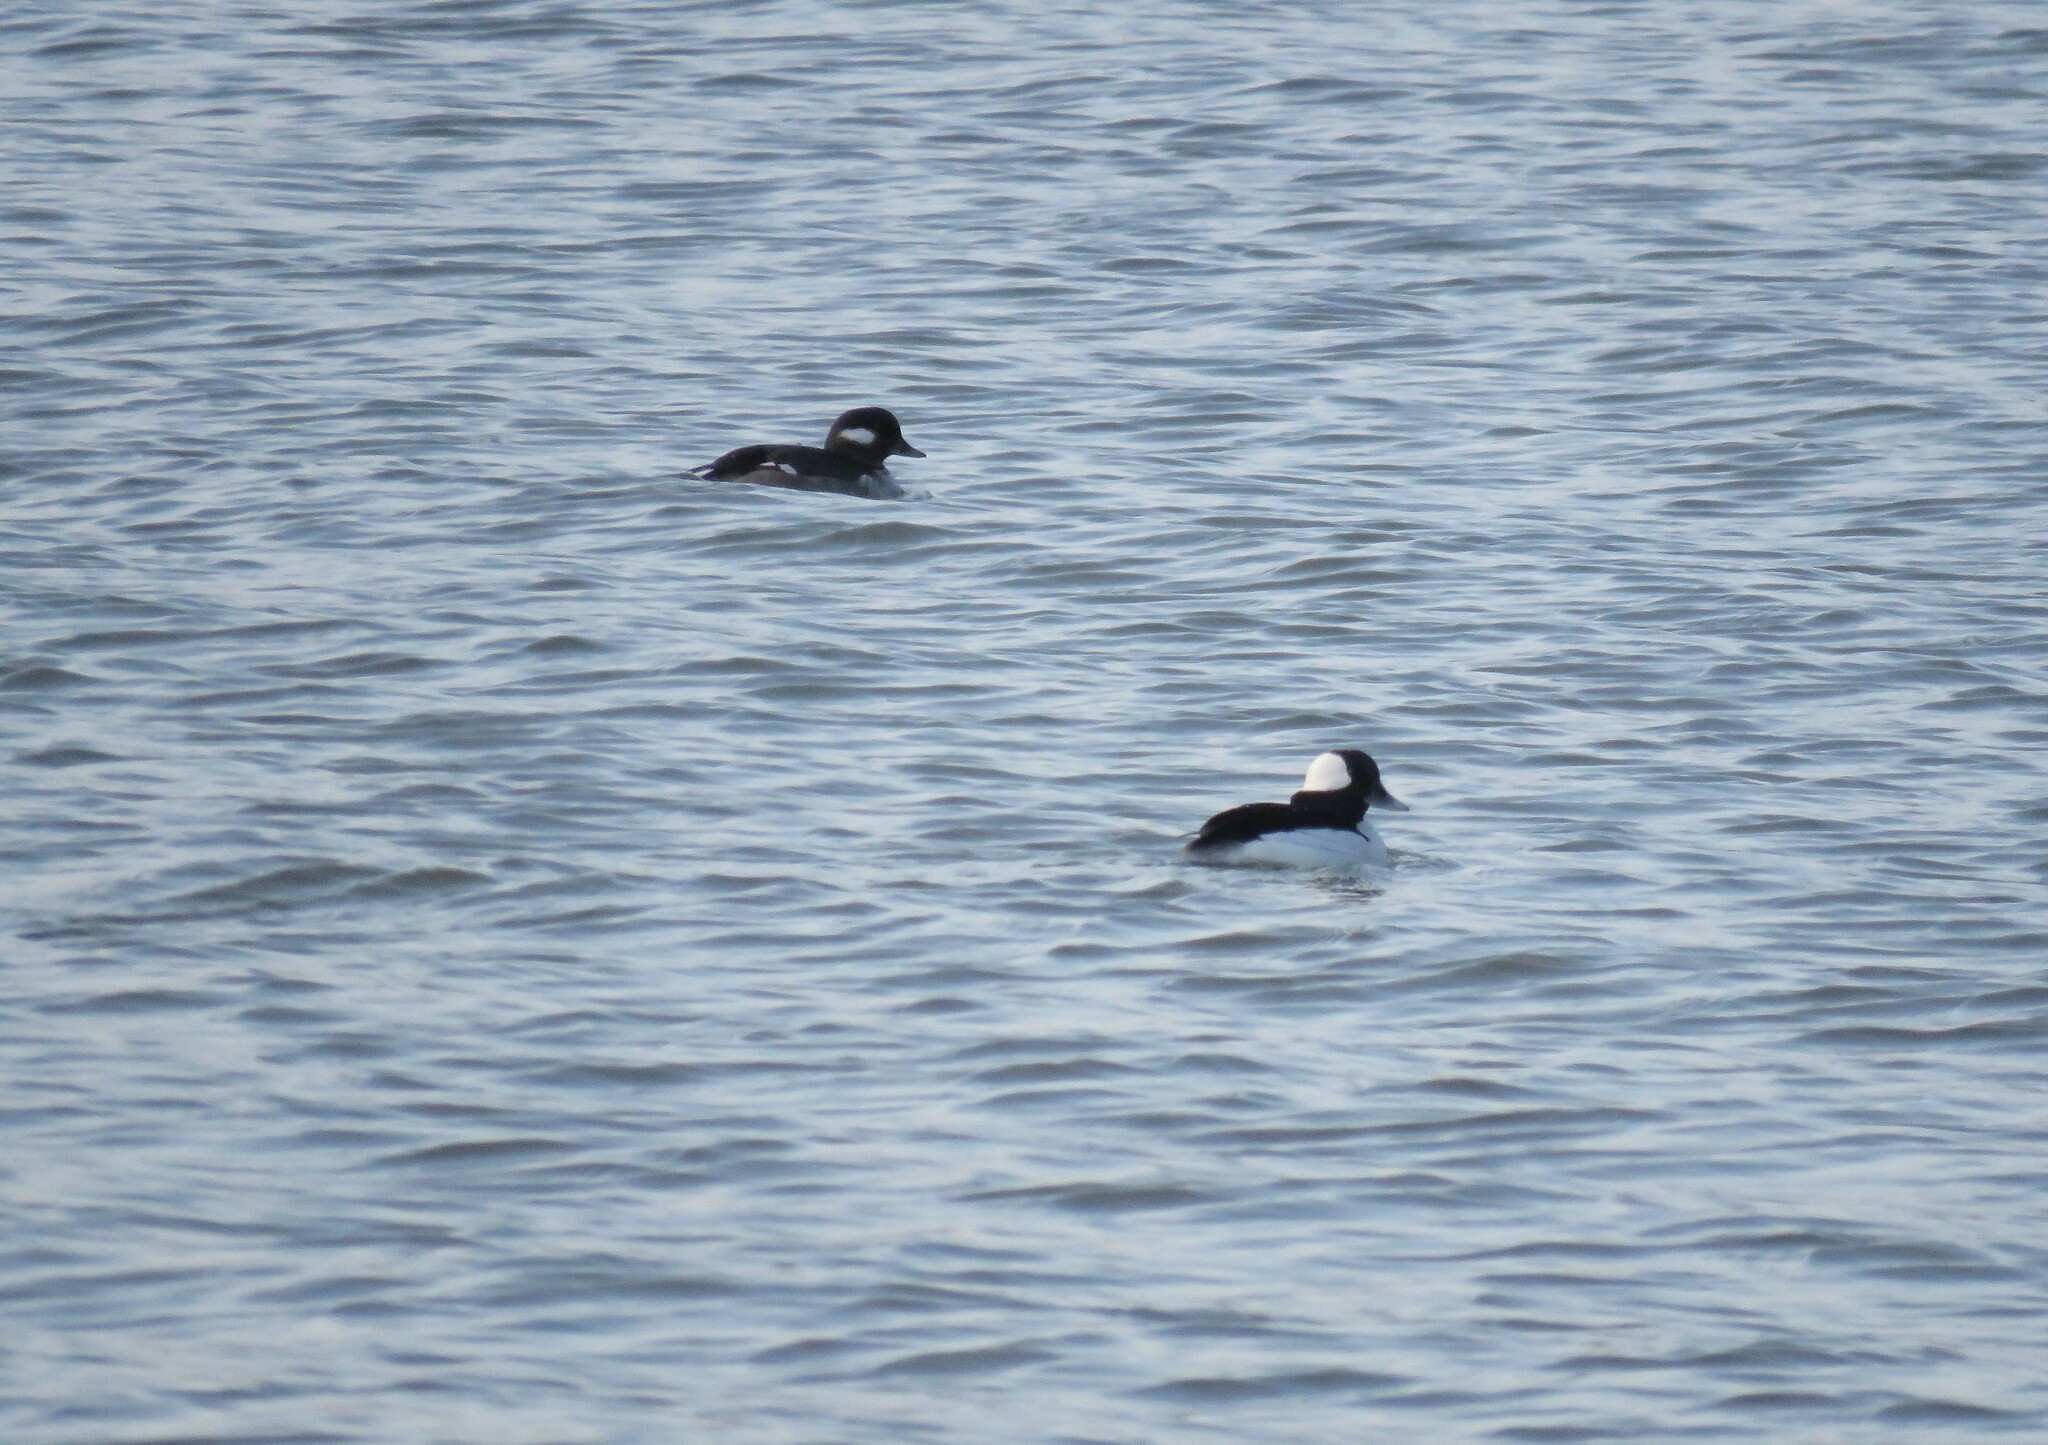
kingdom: Animalia
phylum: Chordata
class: Aves
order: Anseriformes
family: Anatidae
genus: Bucephala
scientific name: Bucephala albeola
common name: Bufflehead
